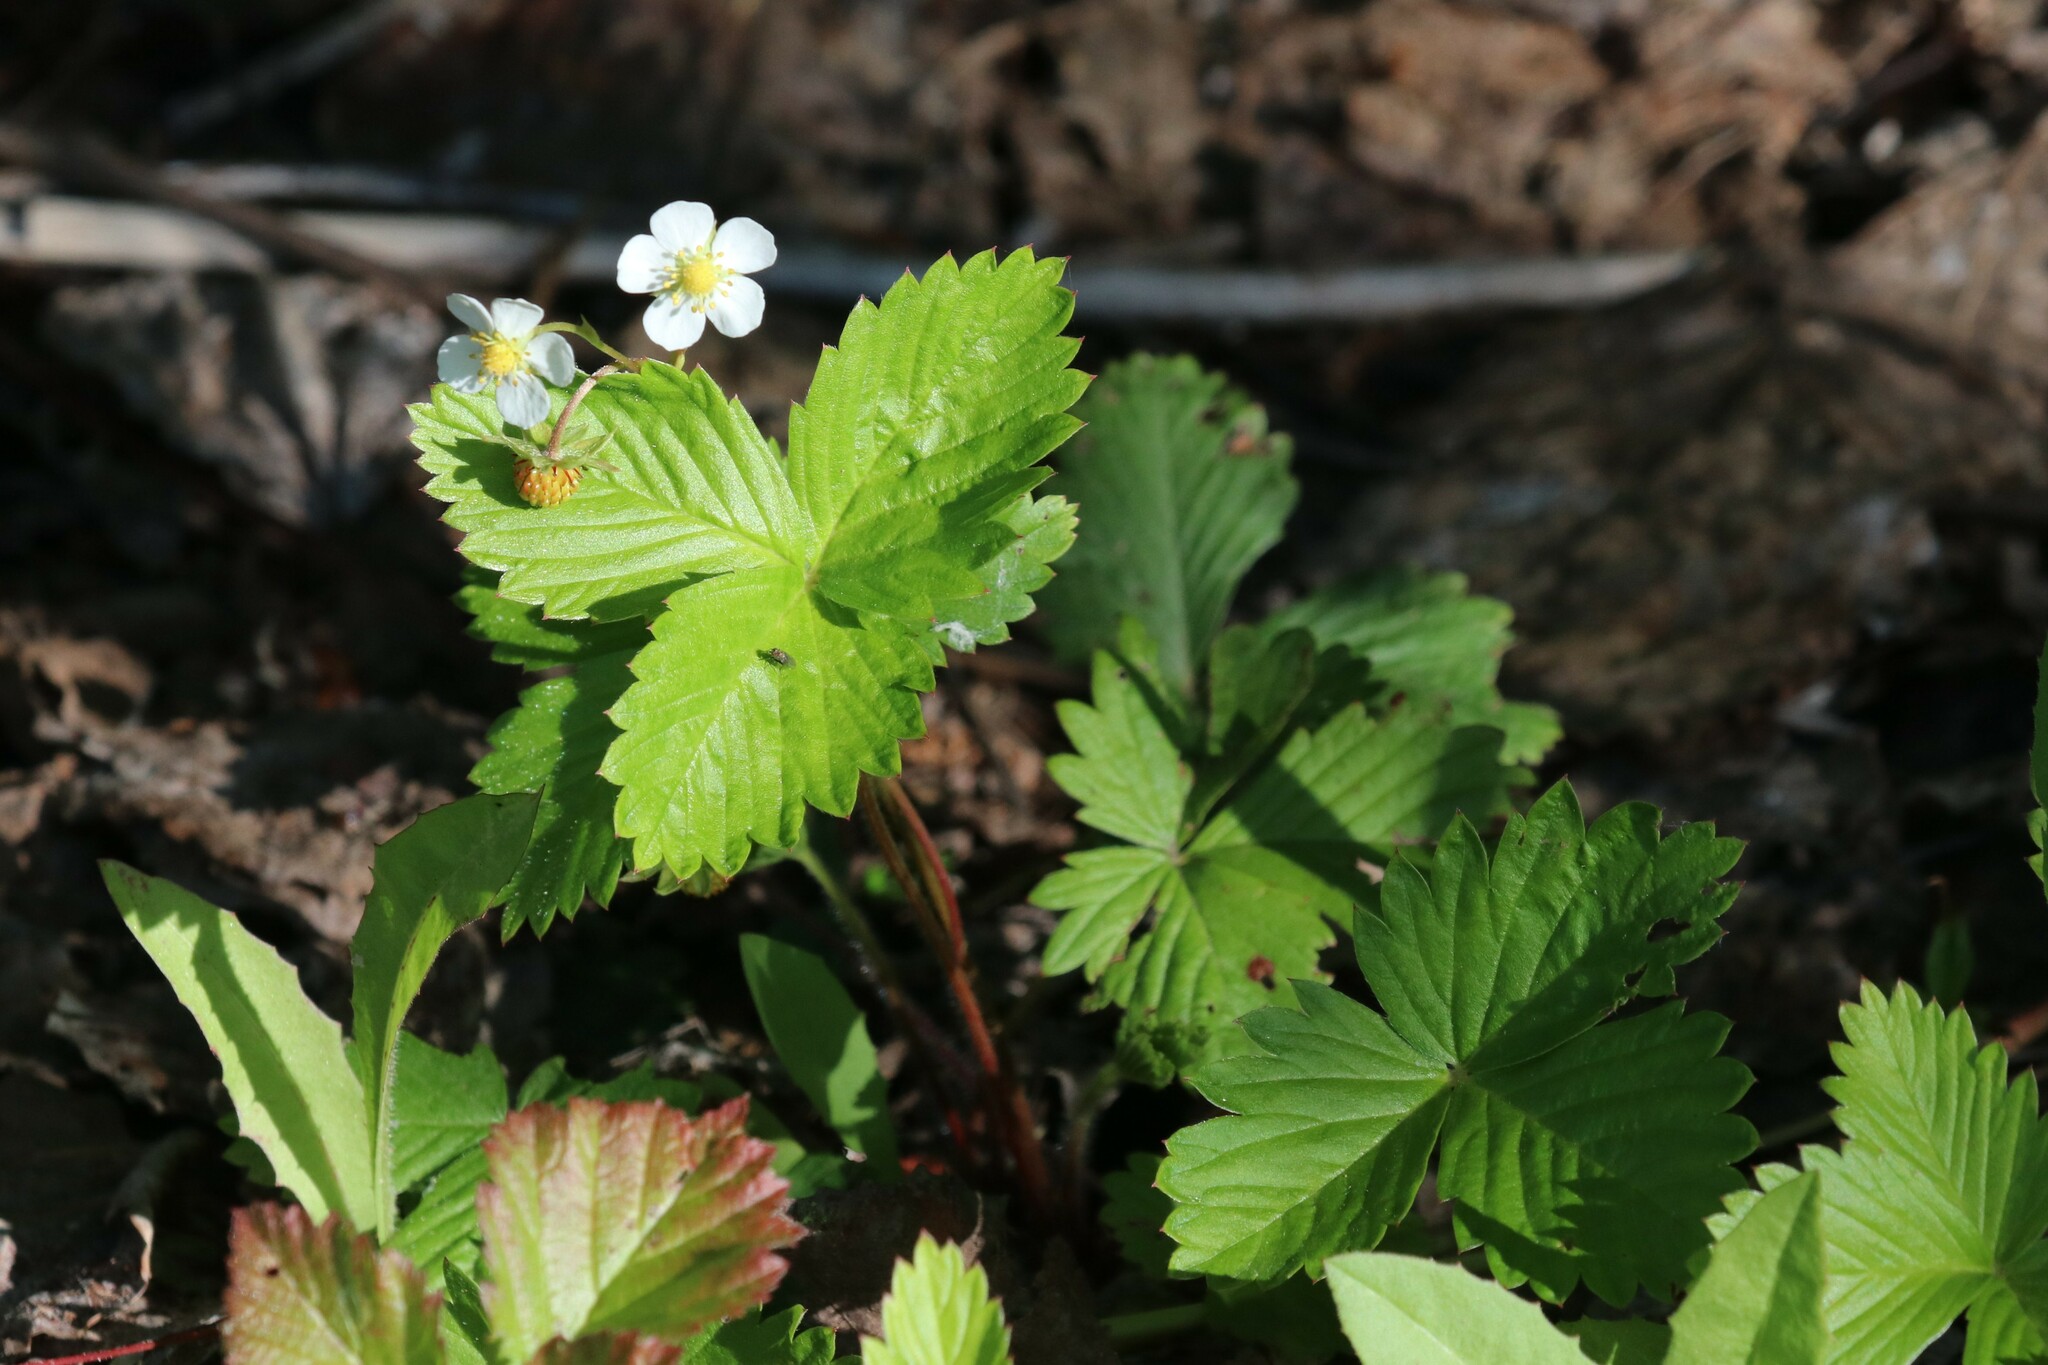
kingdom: Plantae
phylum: Tracheophyta
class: Magnoliopsida
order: Rosales
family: Rosaceae
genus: Fragaria
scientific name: Fragaria vesca
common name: Wild strawberry
